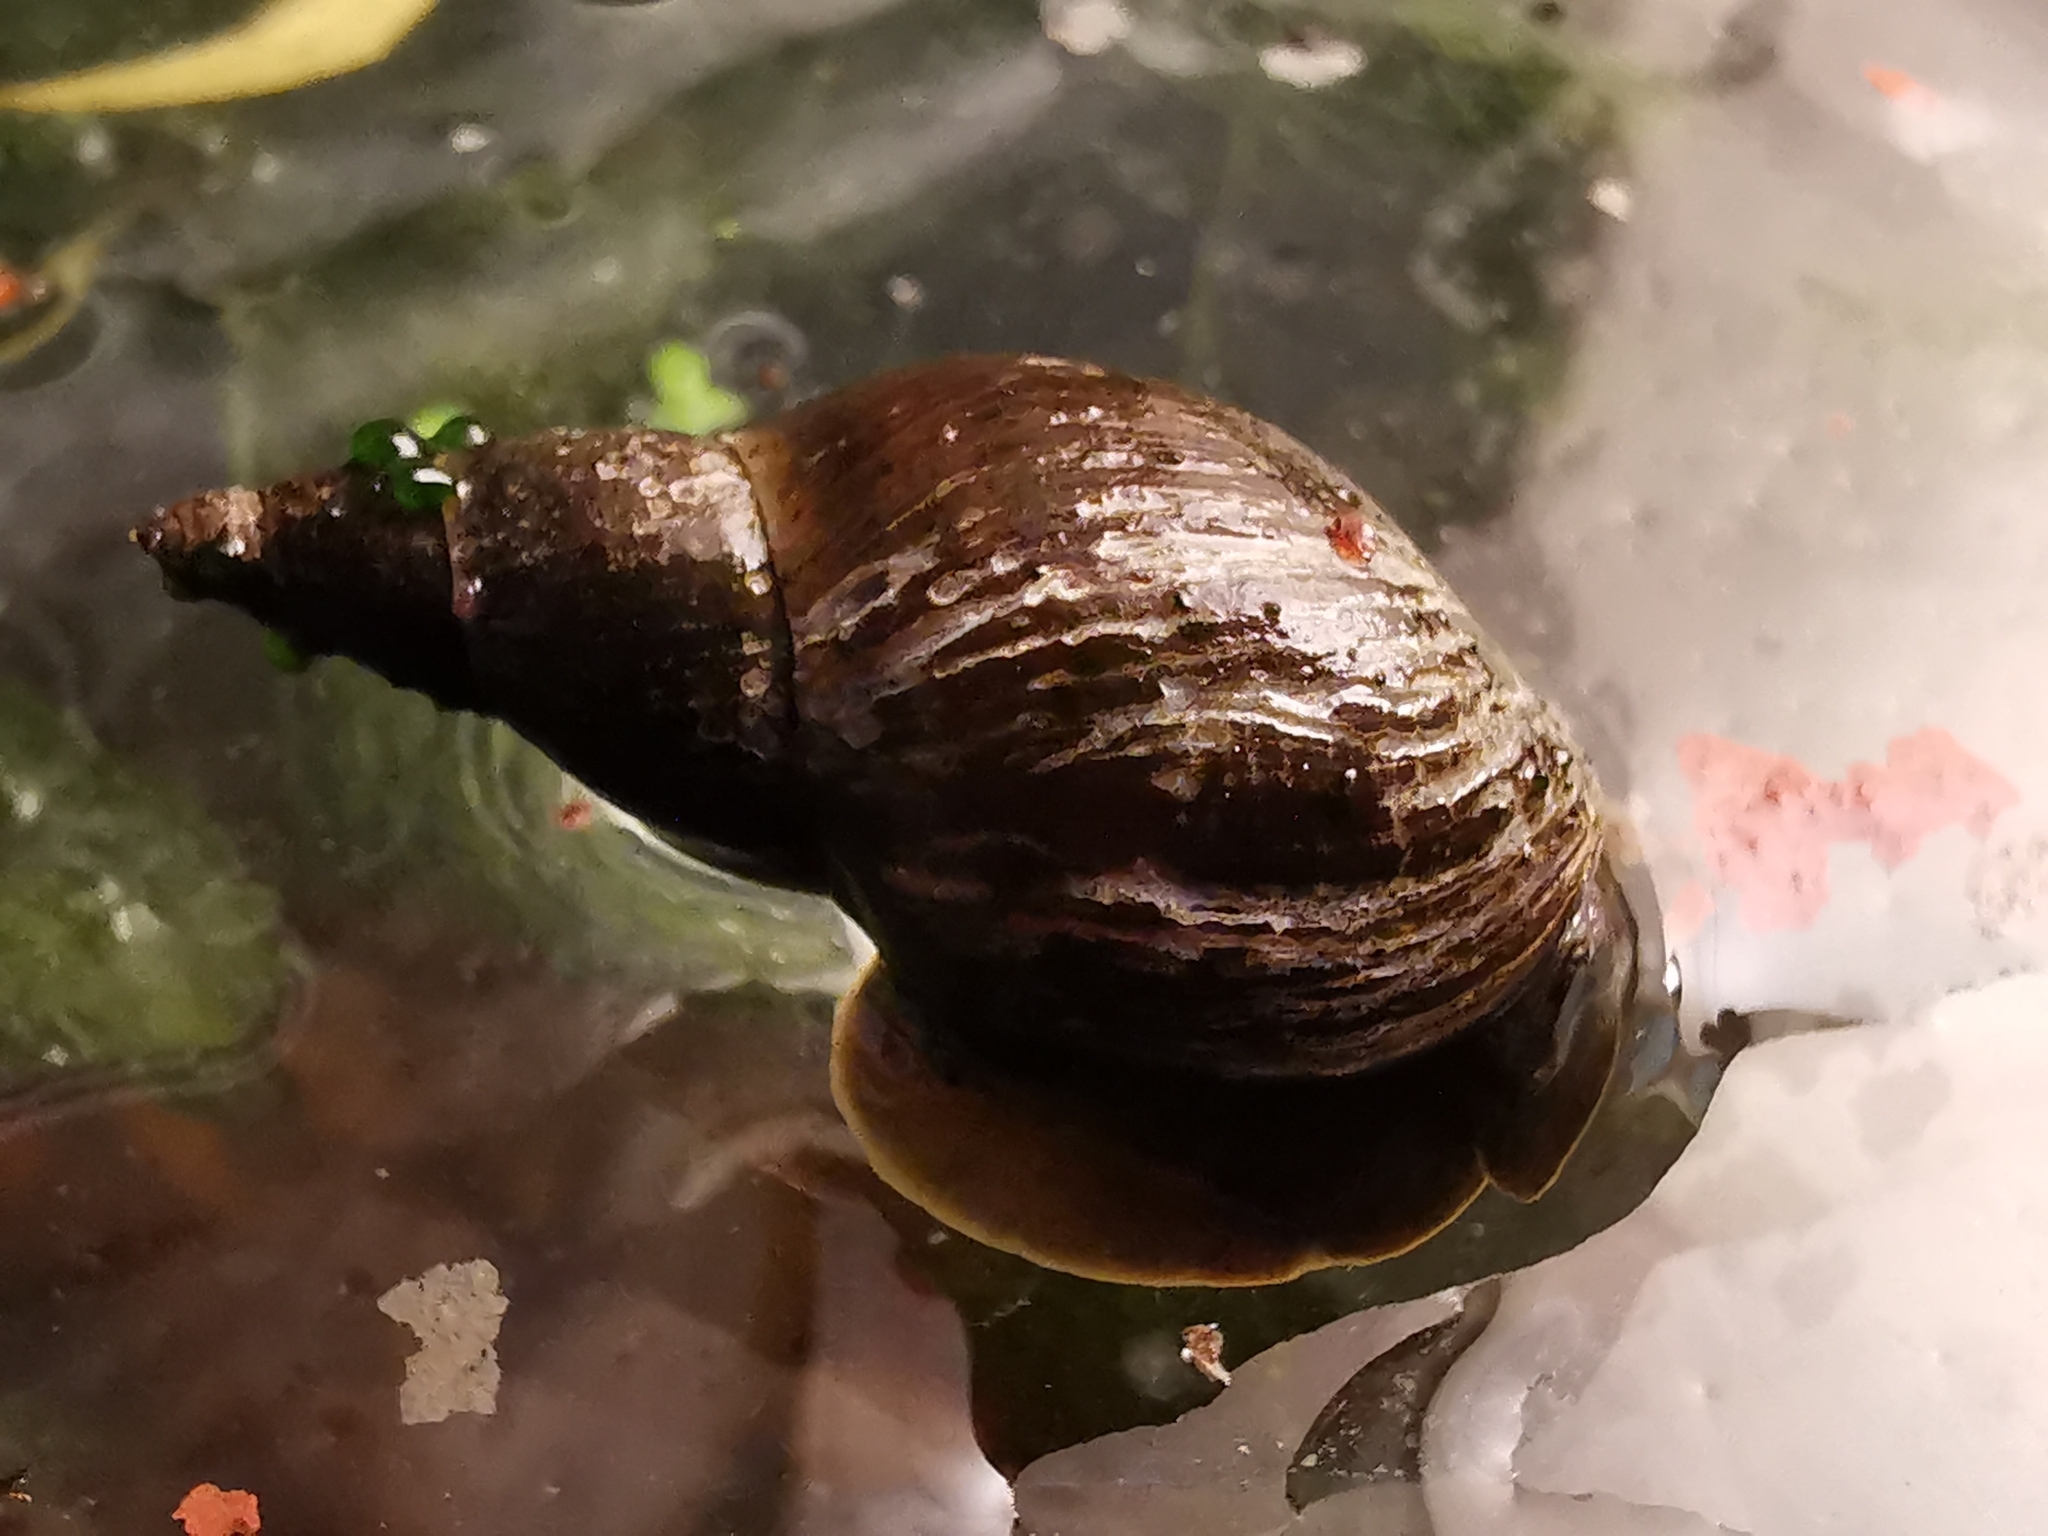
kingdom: Animalia
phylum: Mollusca
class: Gastropoda
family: Lymnaeidae
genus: Lymnaea
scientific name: Lymnaea stagnalis
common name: Great pond snail
